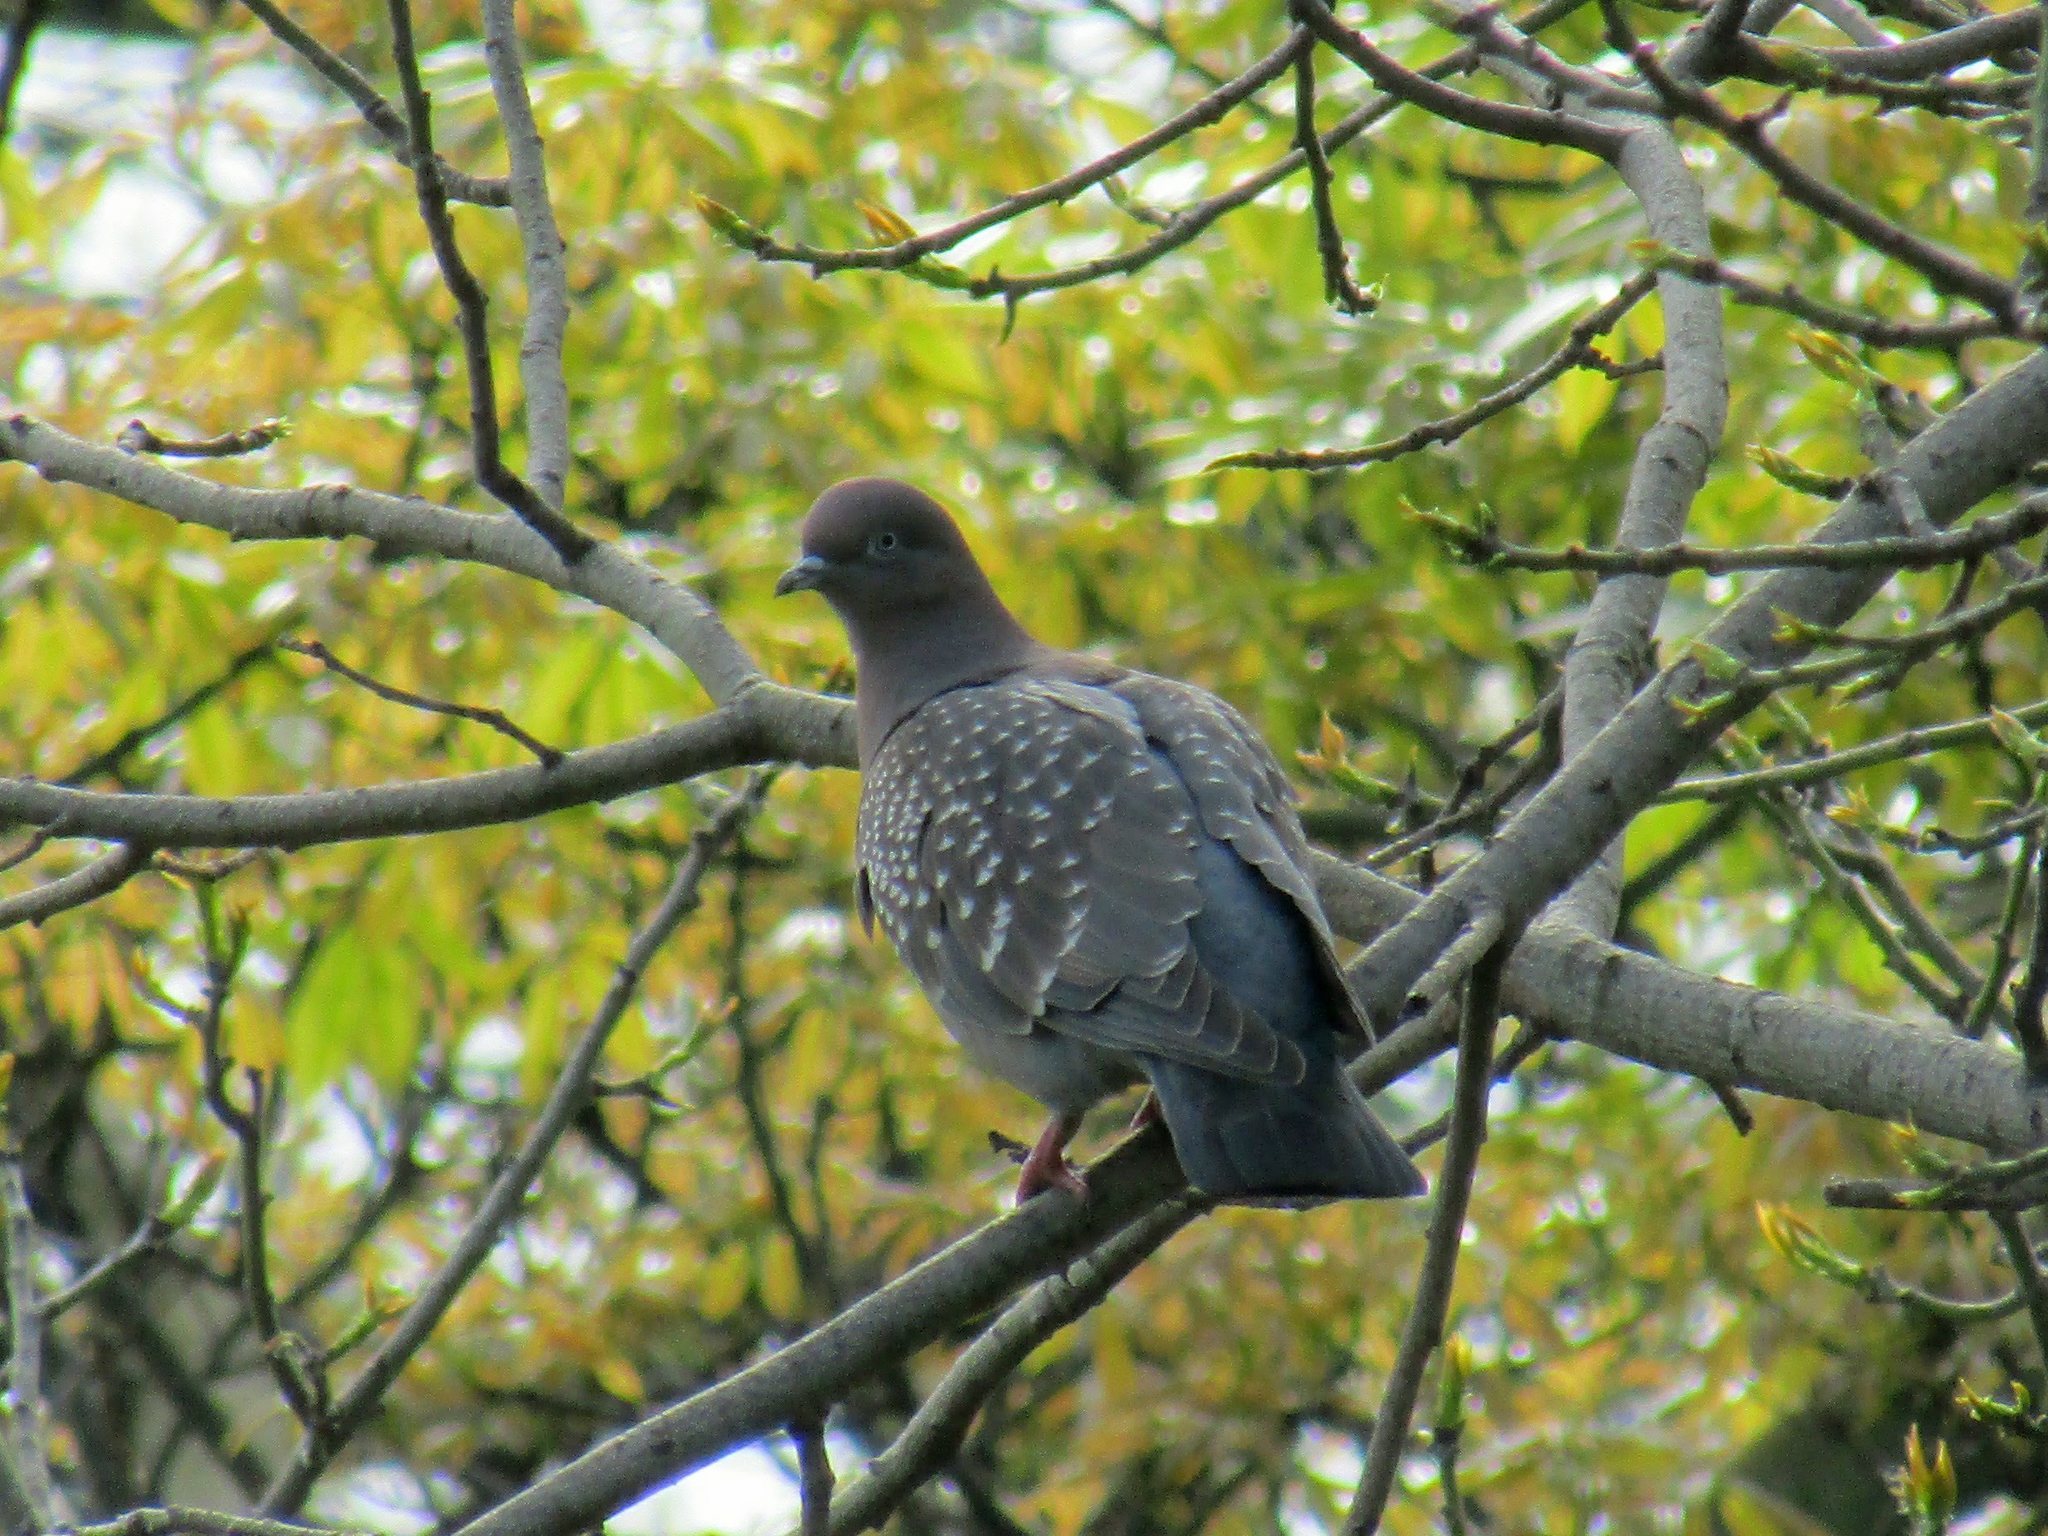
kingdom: Animalia
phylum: Chordata
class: Aves
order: Columbiformes
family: Columbidae
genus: Patagioenas
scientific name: Patagioenas maculosa
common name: Spot-winged pigeon
